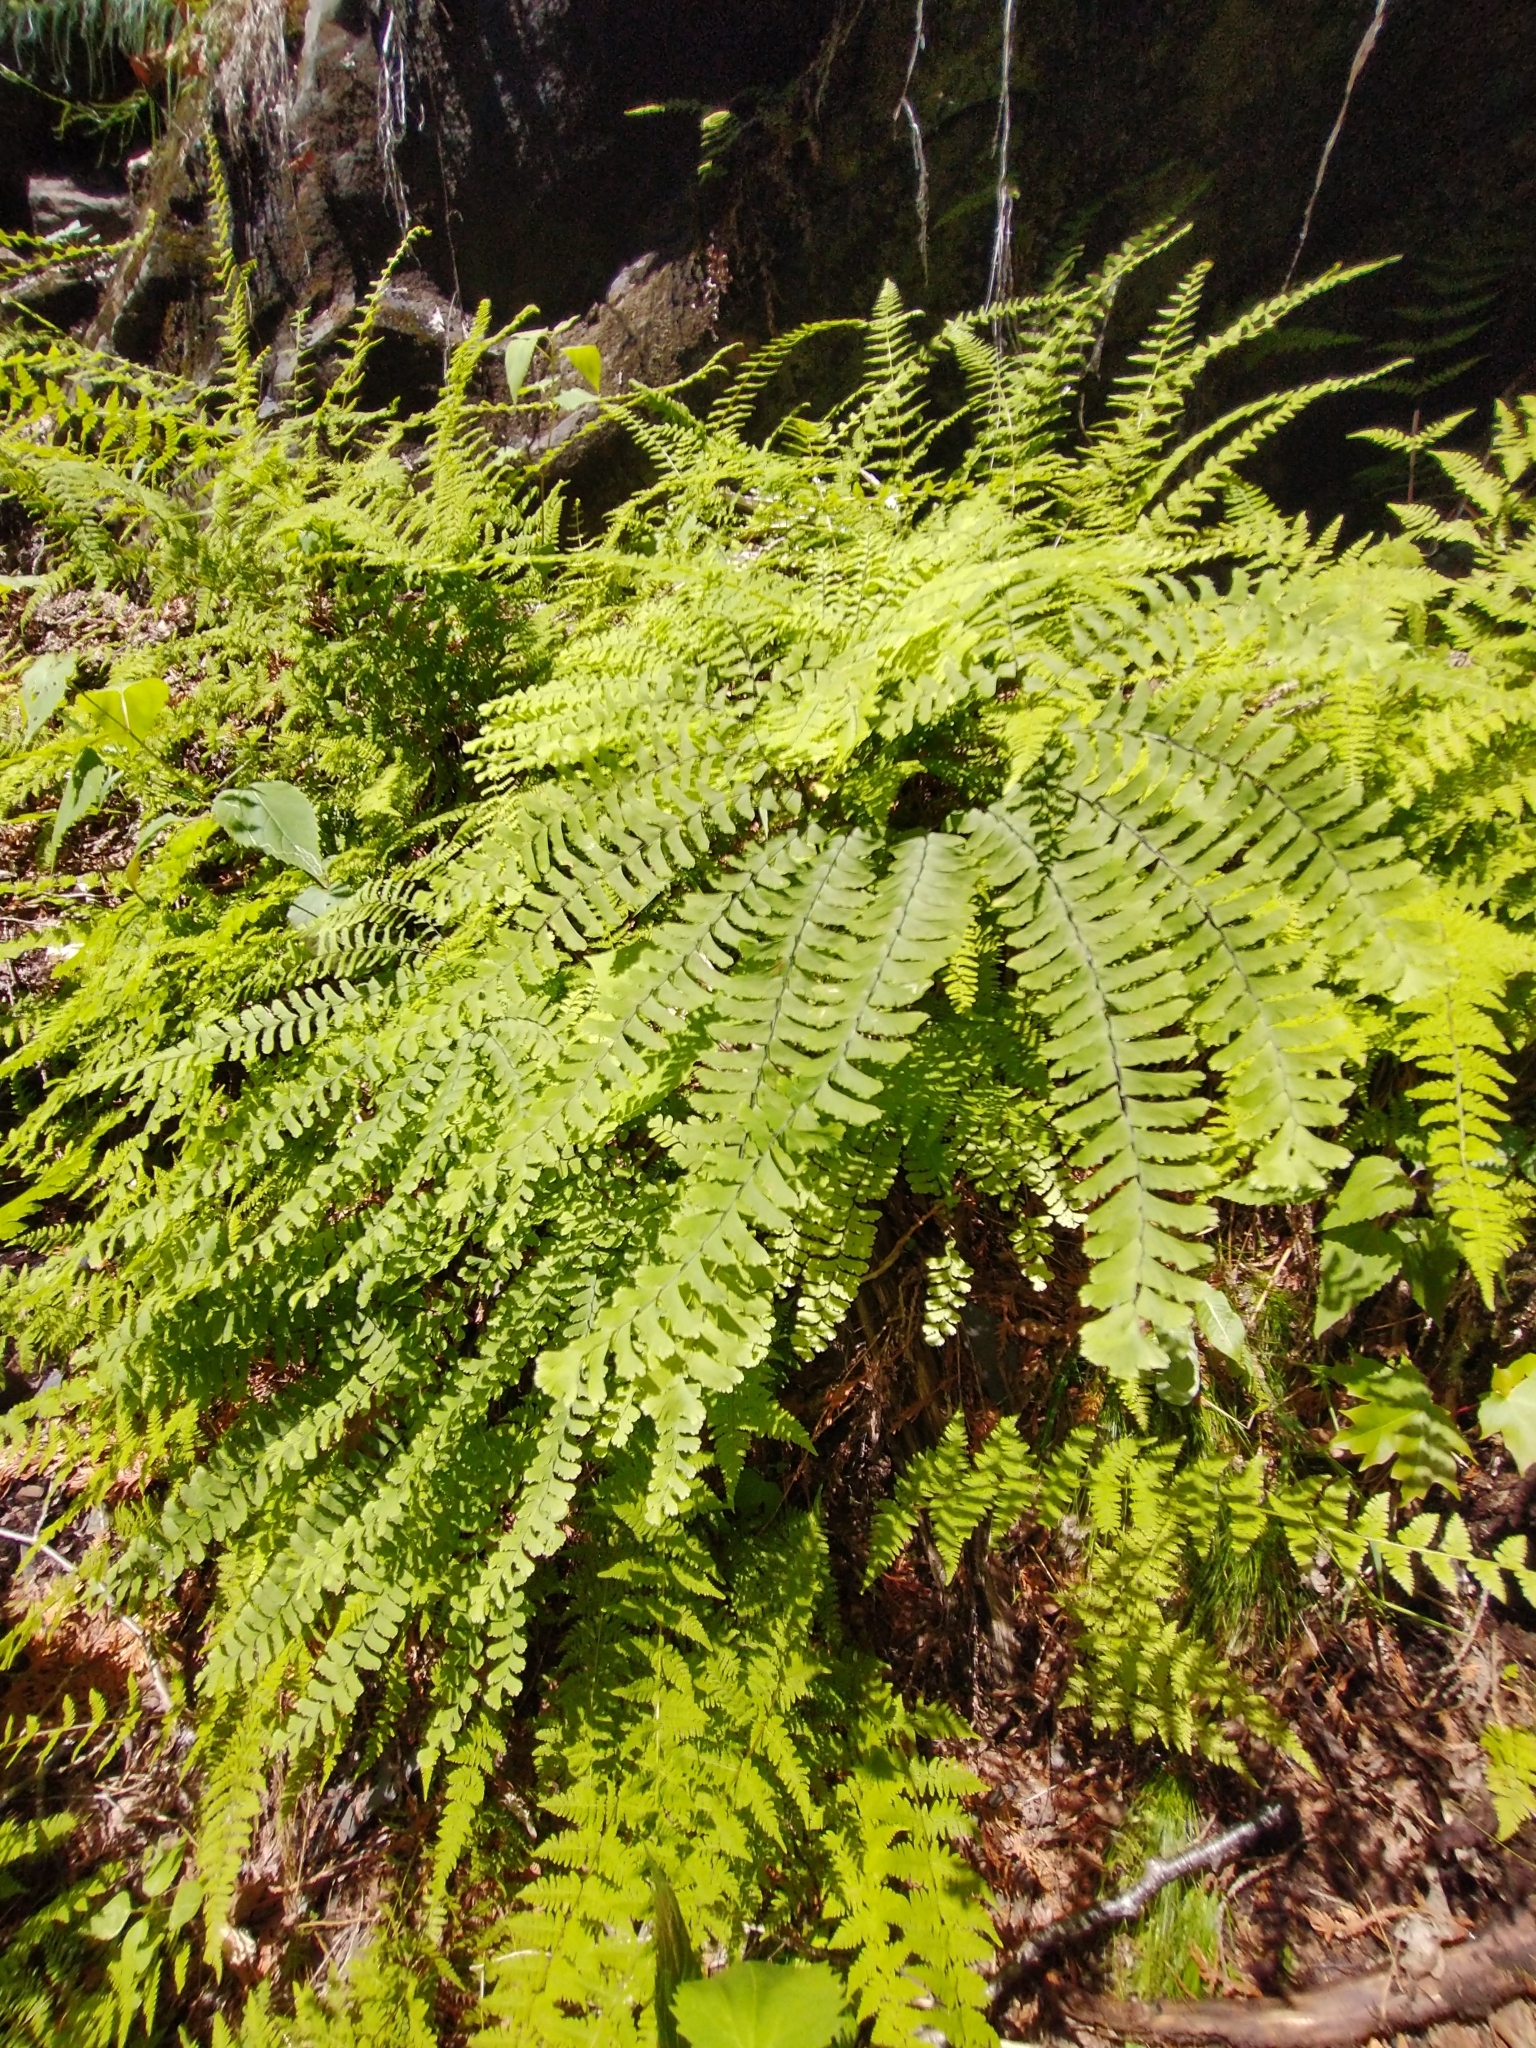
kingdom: Plantae
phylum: Tracheophyta
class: Polypodiopsida
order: Polypodiales
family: Pteridaceae
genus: Adiantum
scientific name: Adiantum pedatum
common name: Five-finger fern
